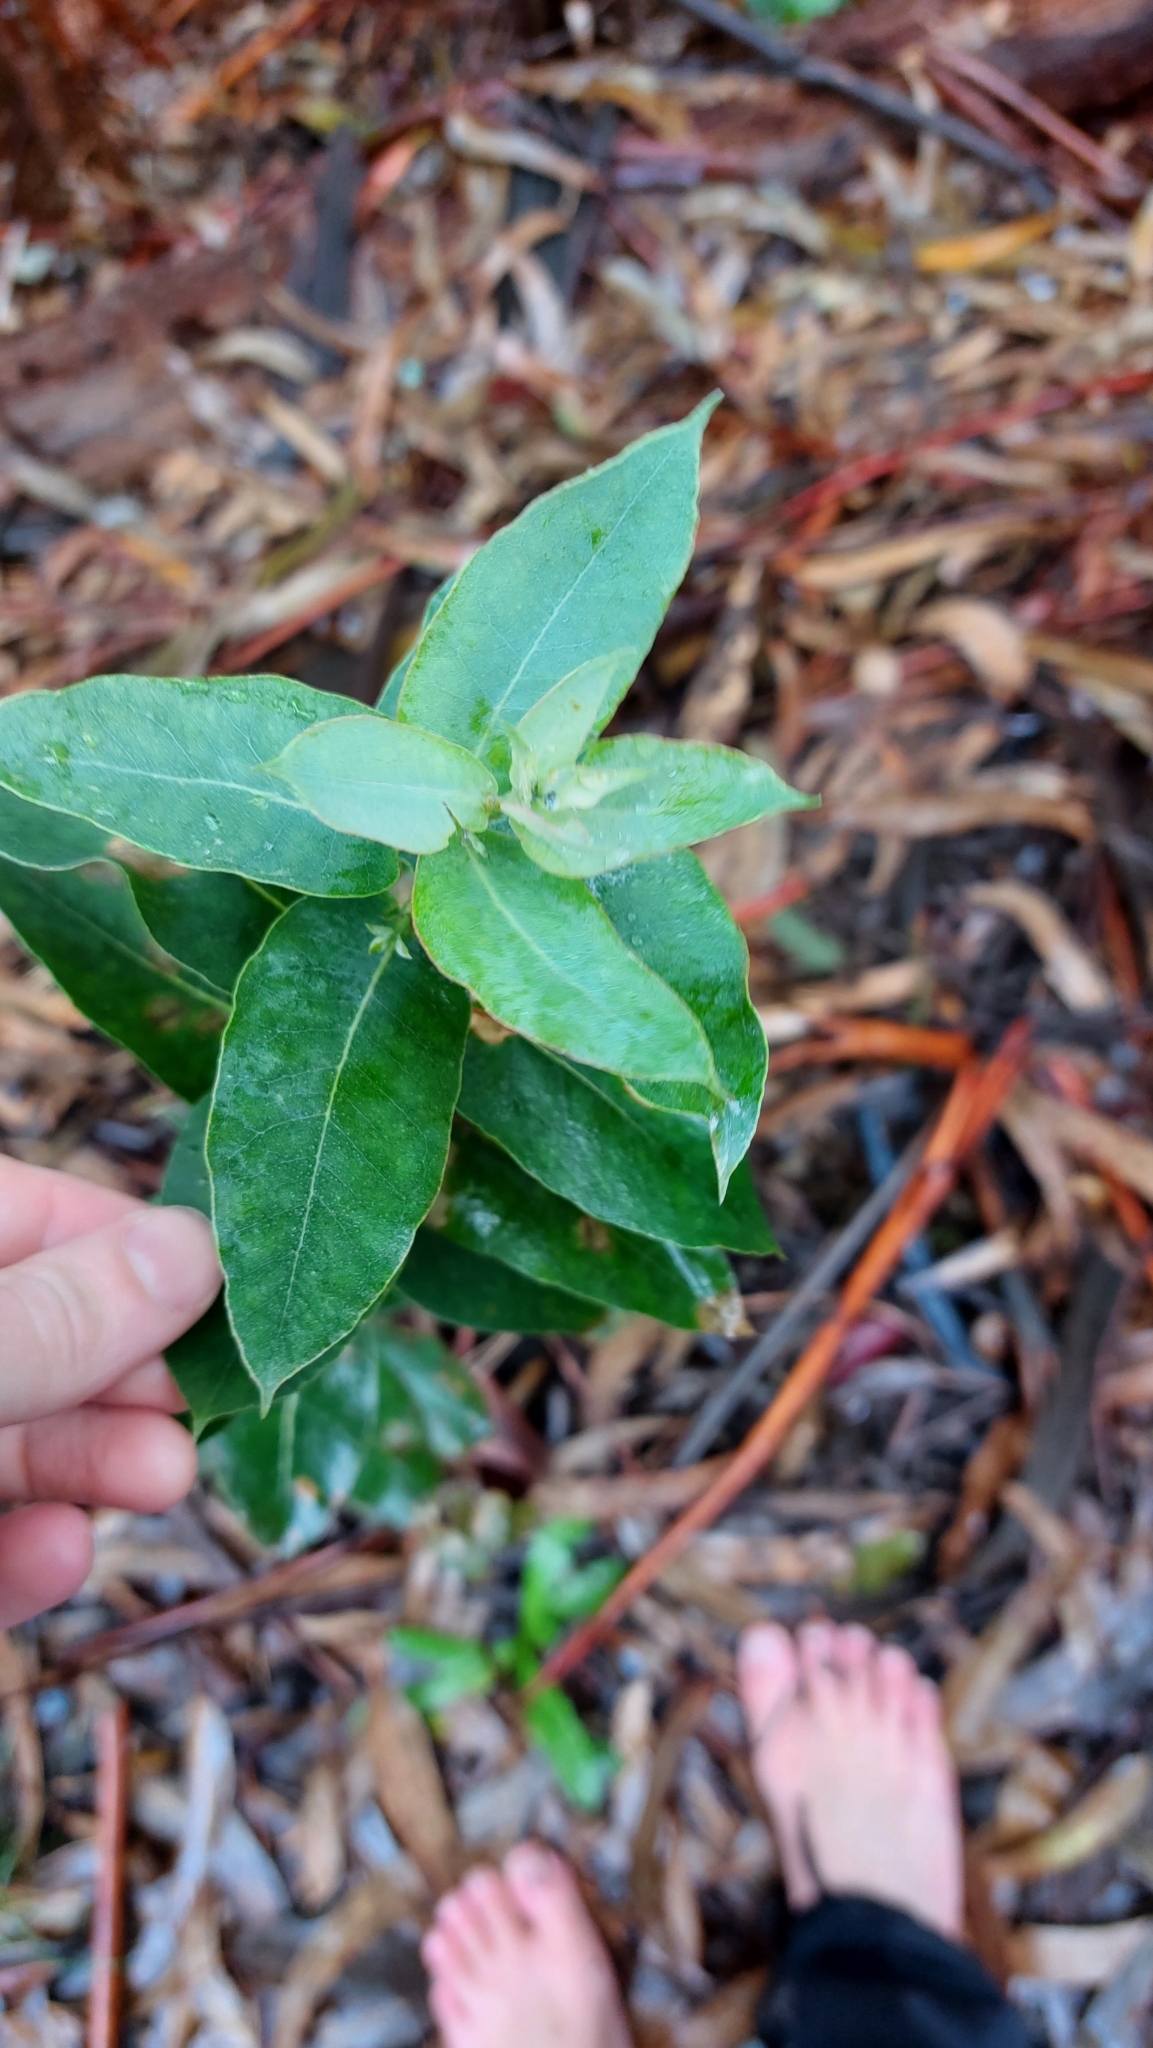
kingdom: Plantae
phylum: Tracheophyta
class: Magnoliopsida
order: Myrtales
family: Myrtaceae
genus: Eucalyptus
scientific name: Eucalyptus globulus
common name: Southern blue-gum
